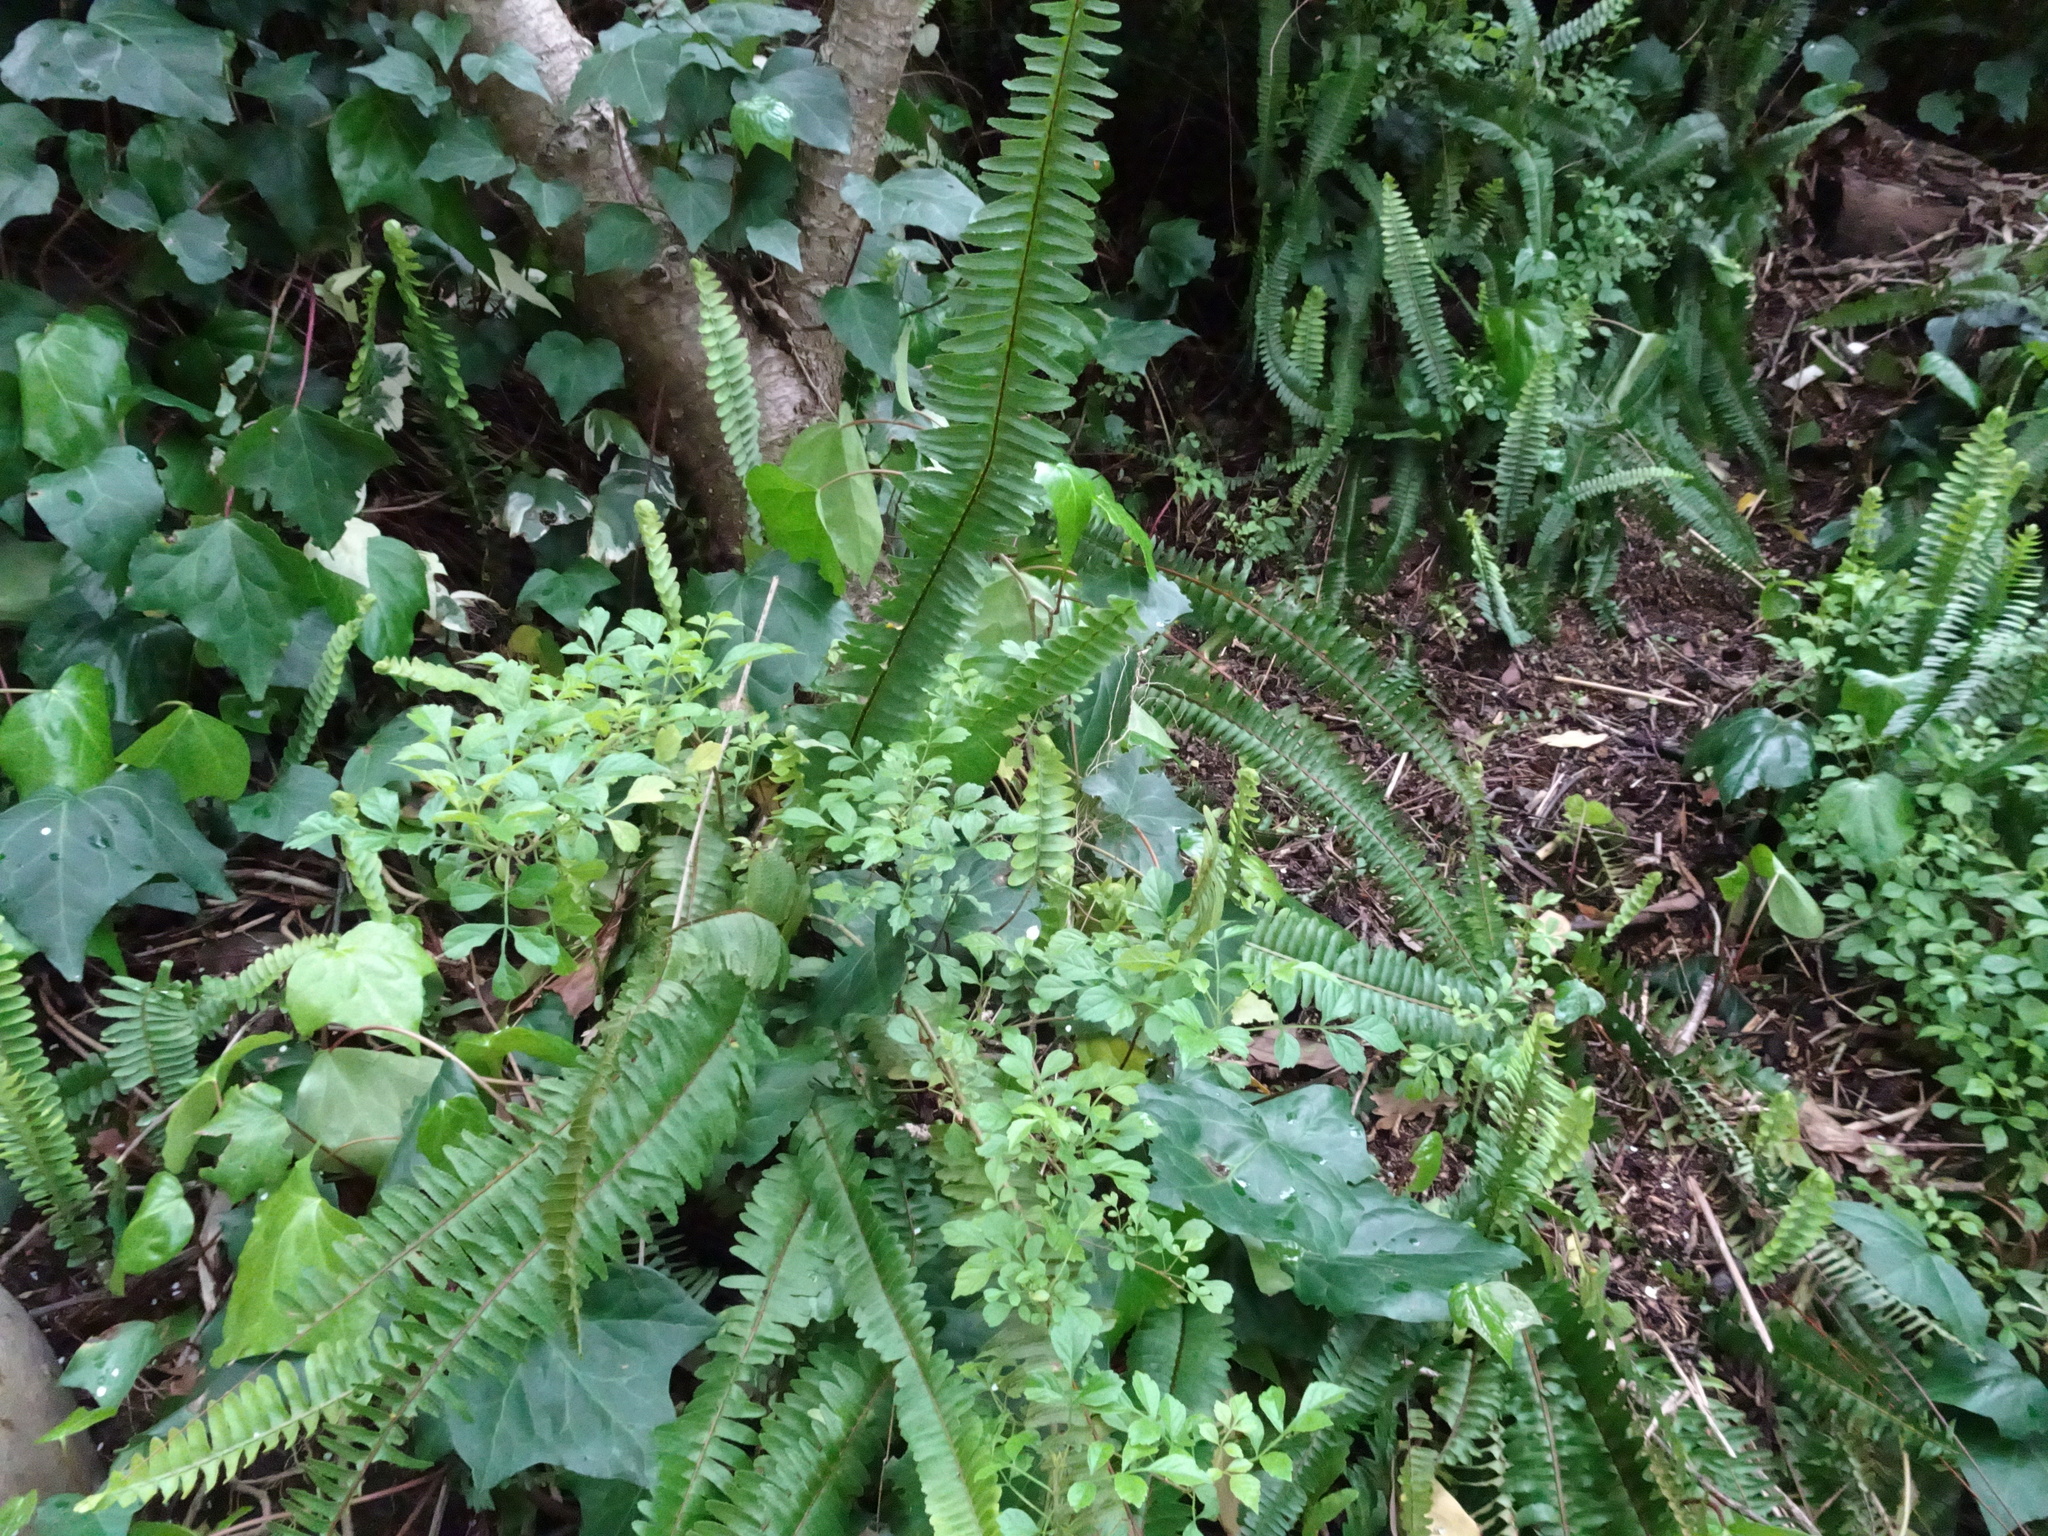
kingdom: Plantae
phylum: Tracheophyta
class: Polypodiopsida
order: Polypodiales
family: Nephrolepidaceae
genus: Nephrolepis
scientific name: Nephrolepis cordifolia
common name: Narrow swordfern
